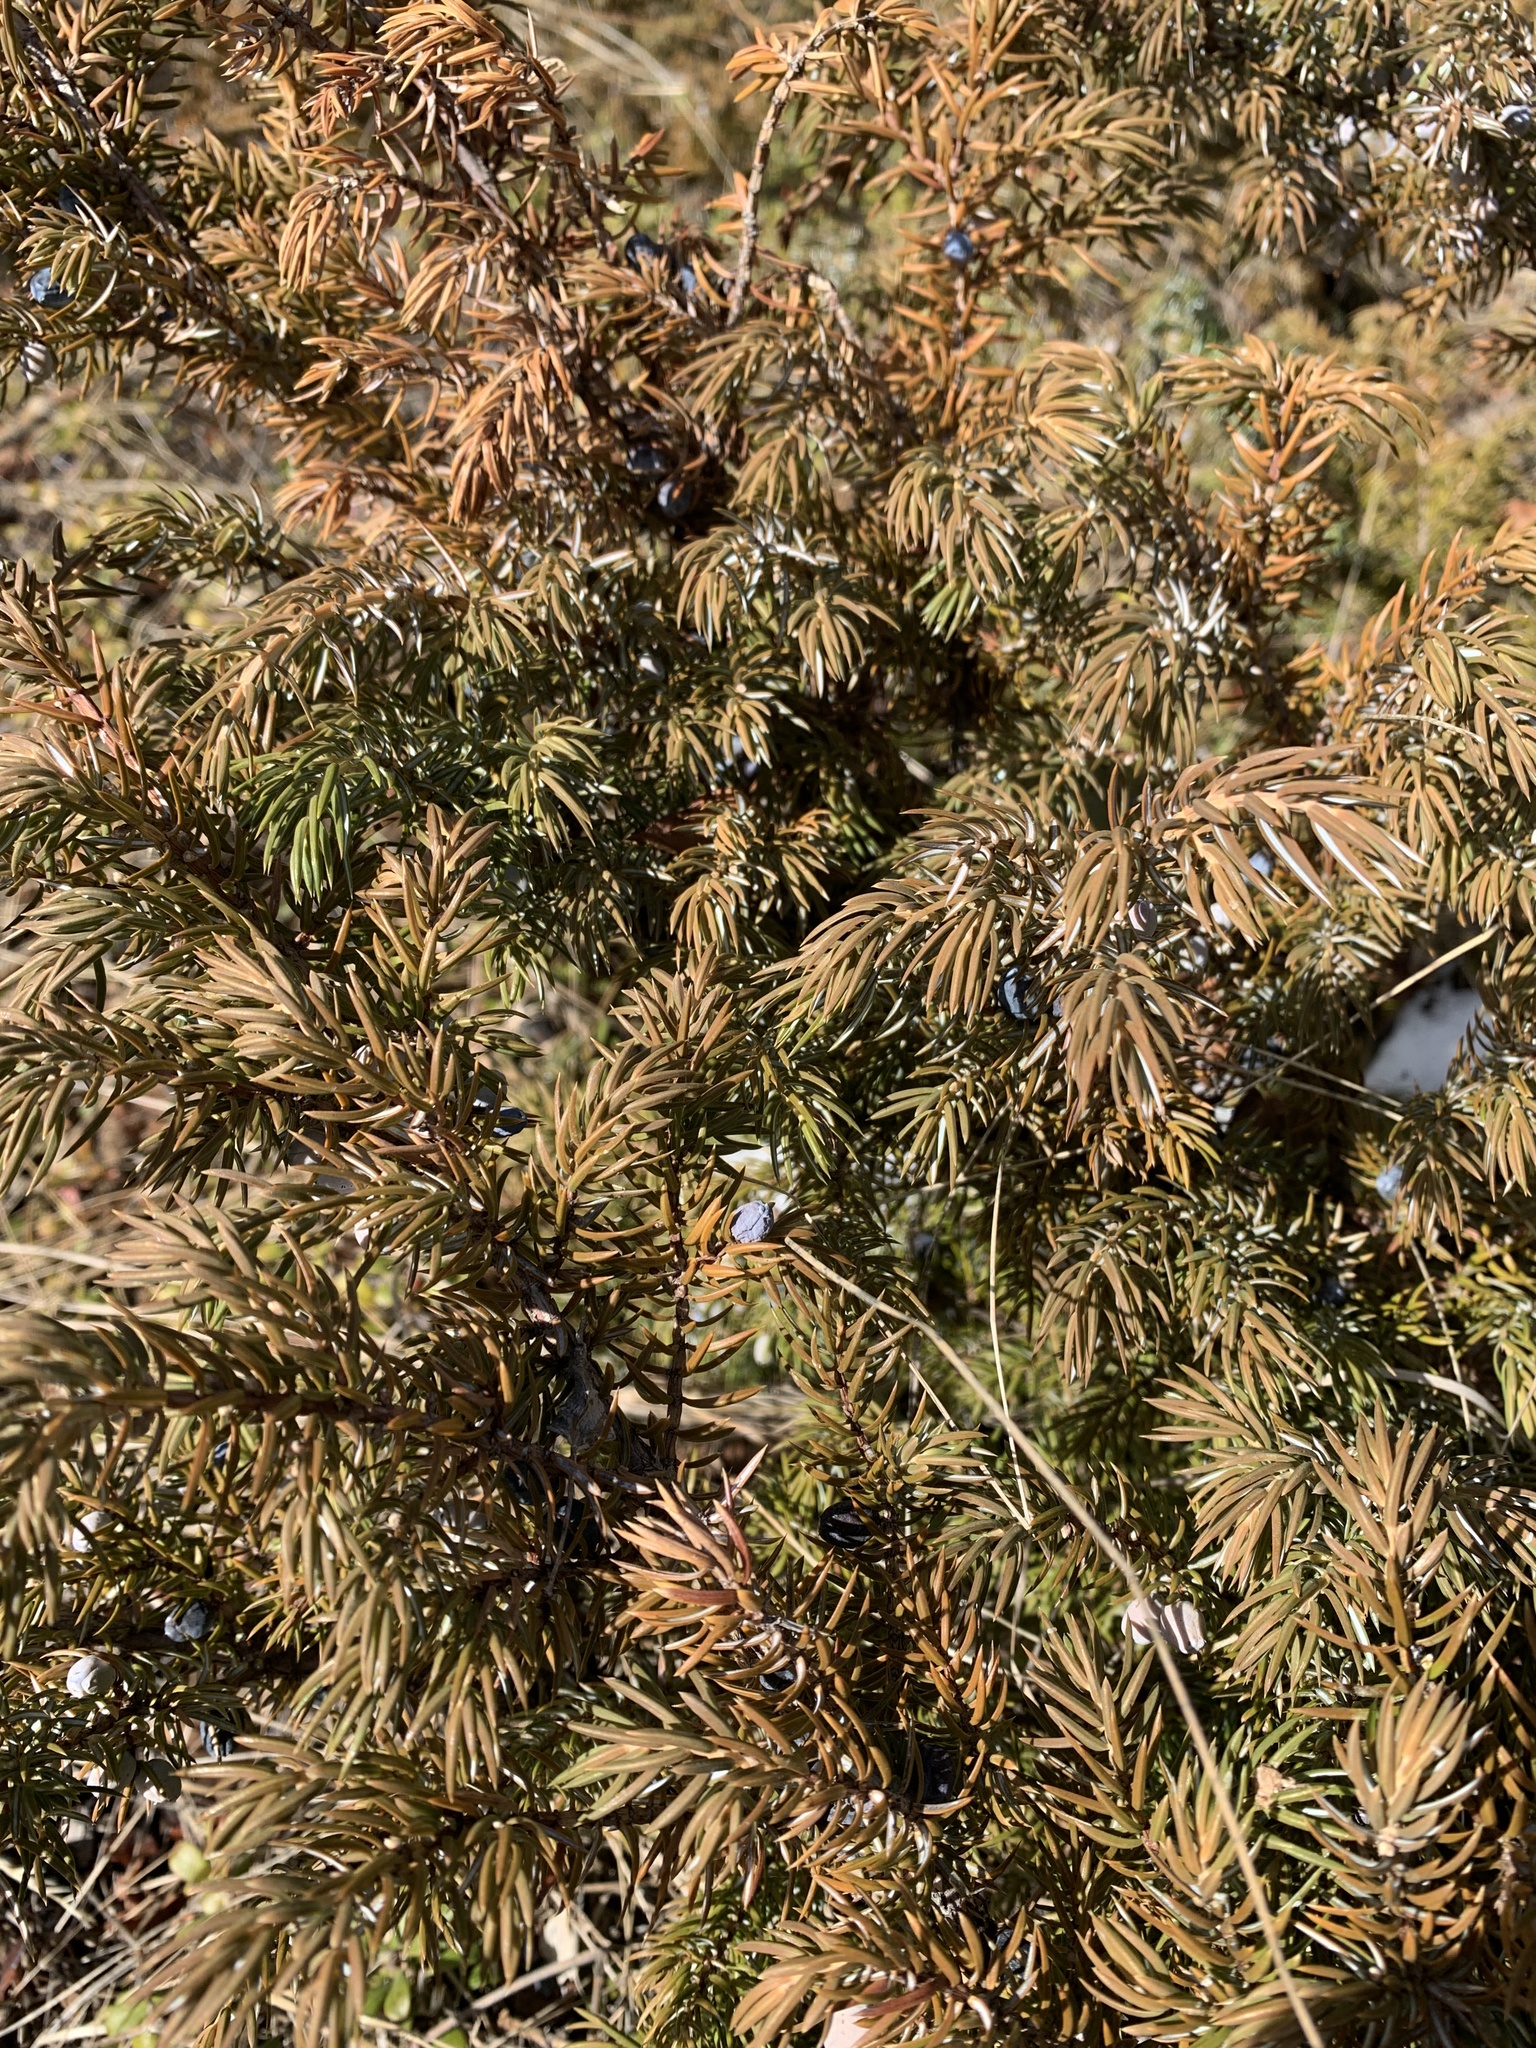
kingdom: Plantae
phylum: Tracheophyta
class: Pinopsida
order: Pinales
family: Cupressaceae
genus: Juniperus
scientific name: Juniperus communis
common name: Common juniper
